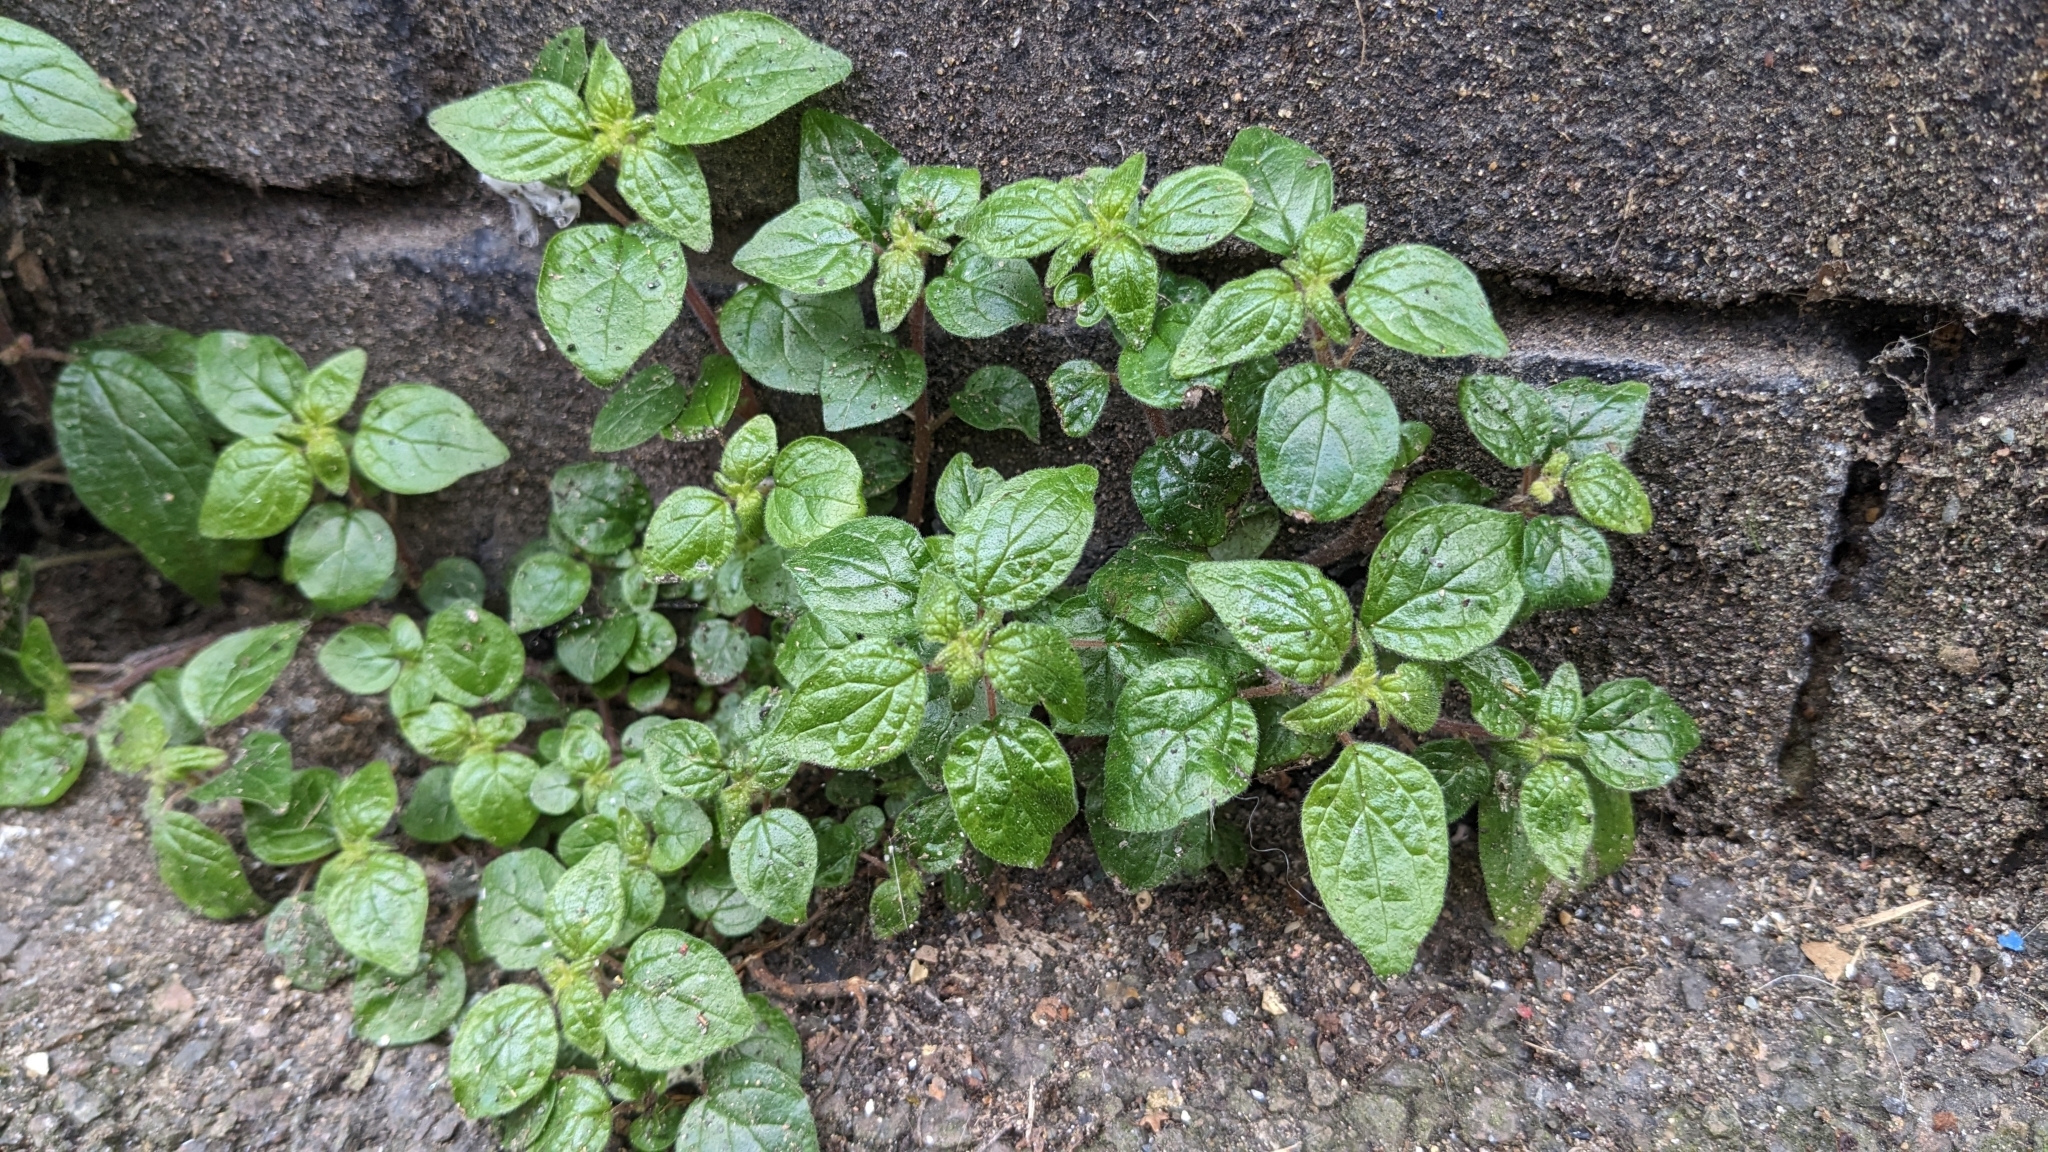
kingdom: Plantae
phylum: Tracheophyta
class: Magnoliopsida
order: Rosales
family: Urticaceae
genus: Parietaria
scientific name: Parietaria judaica
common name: Pellitory-of-the-wall
